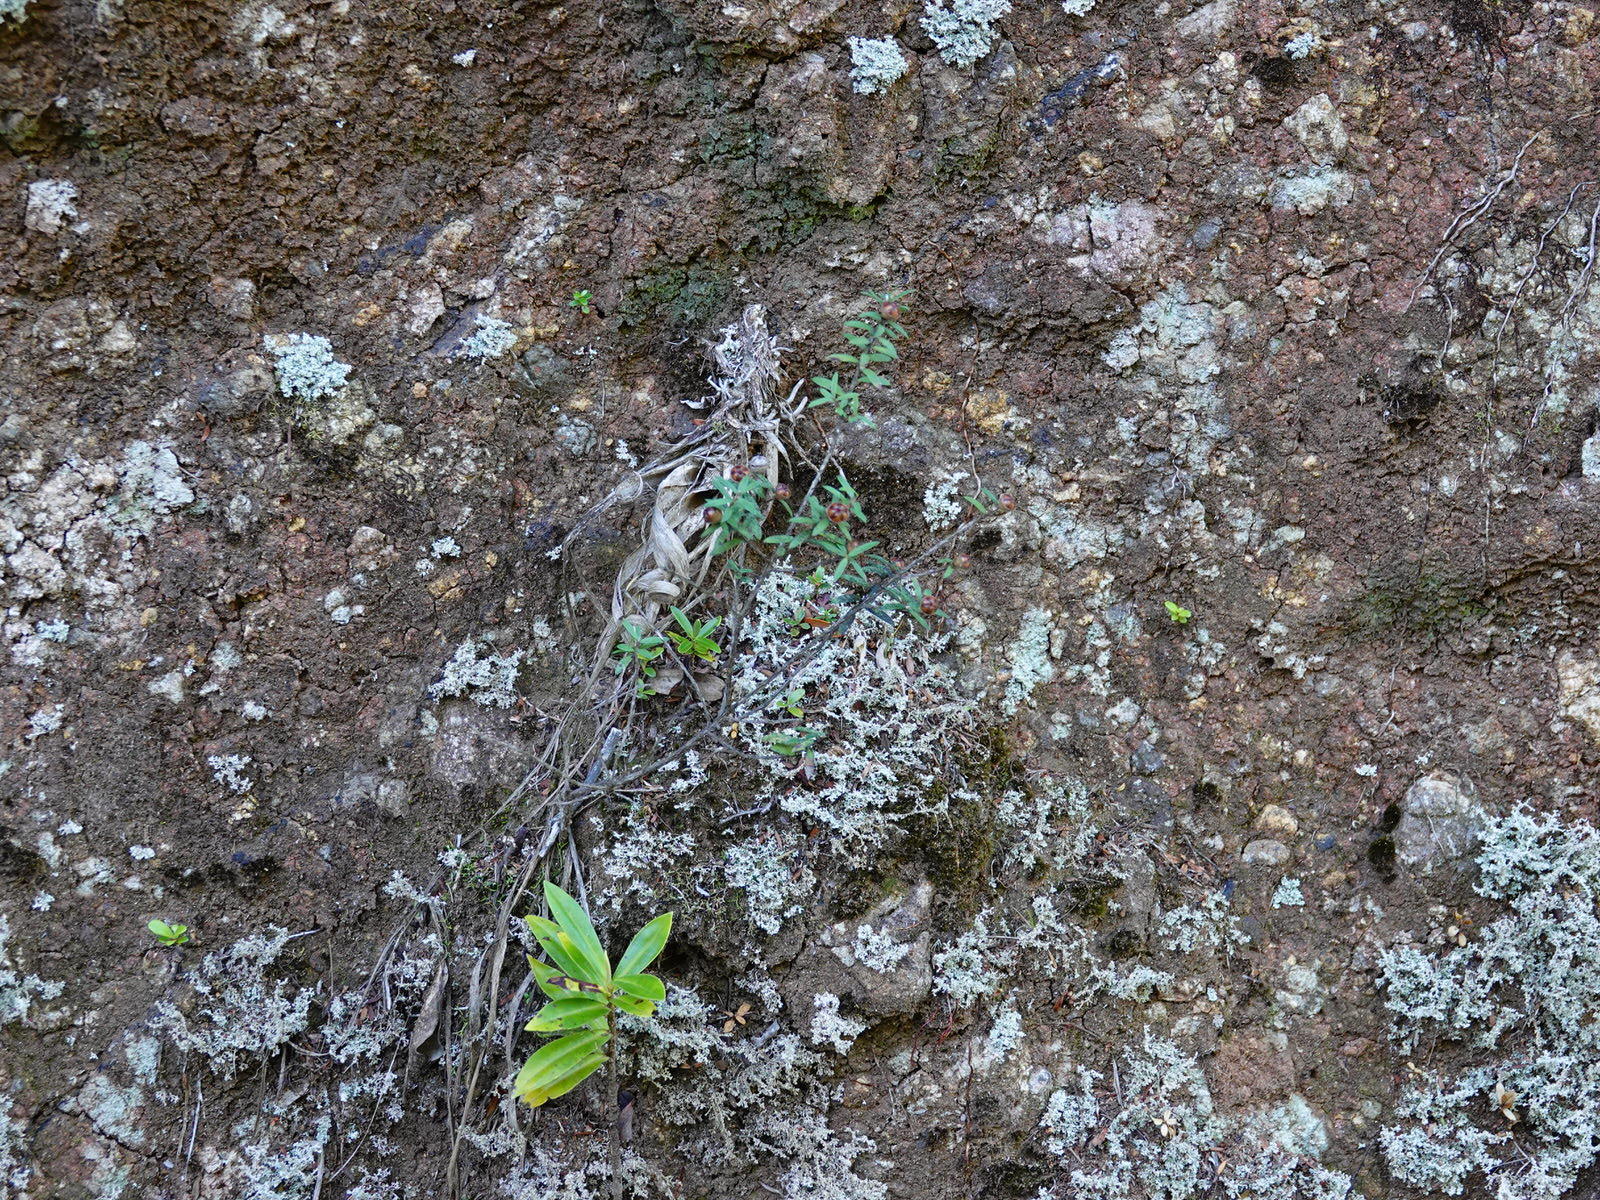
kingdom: Plantae
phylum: Tracheophyta
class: Magnoliopsida
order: Myrtales
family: Myrtaceae
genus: Leptospermum
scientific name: Leptospermum scoparium
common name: Broom tea-tree
